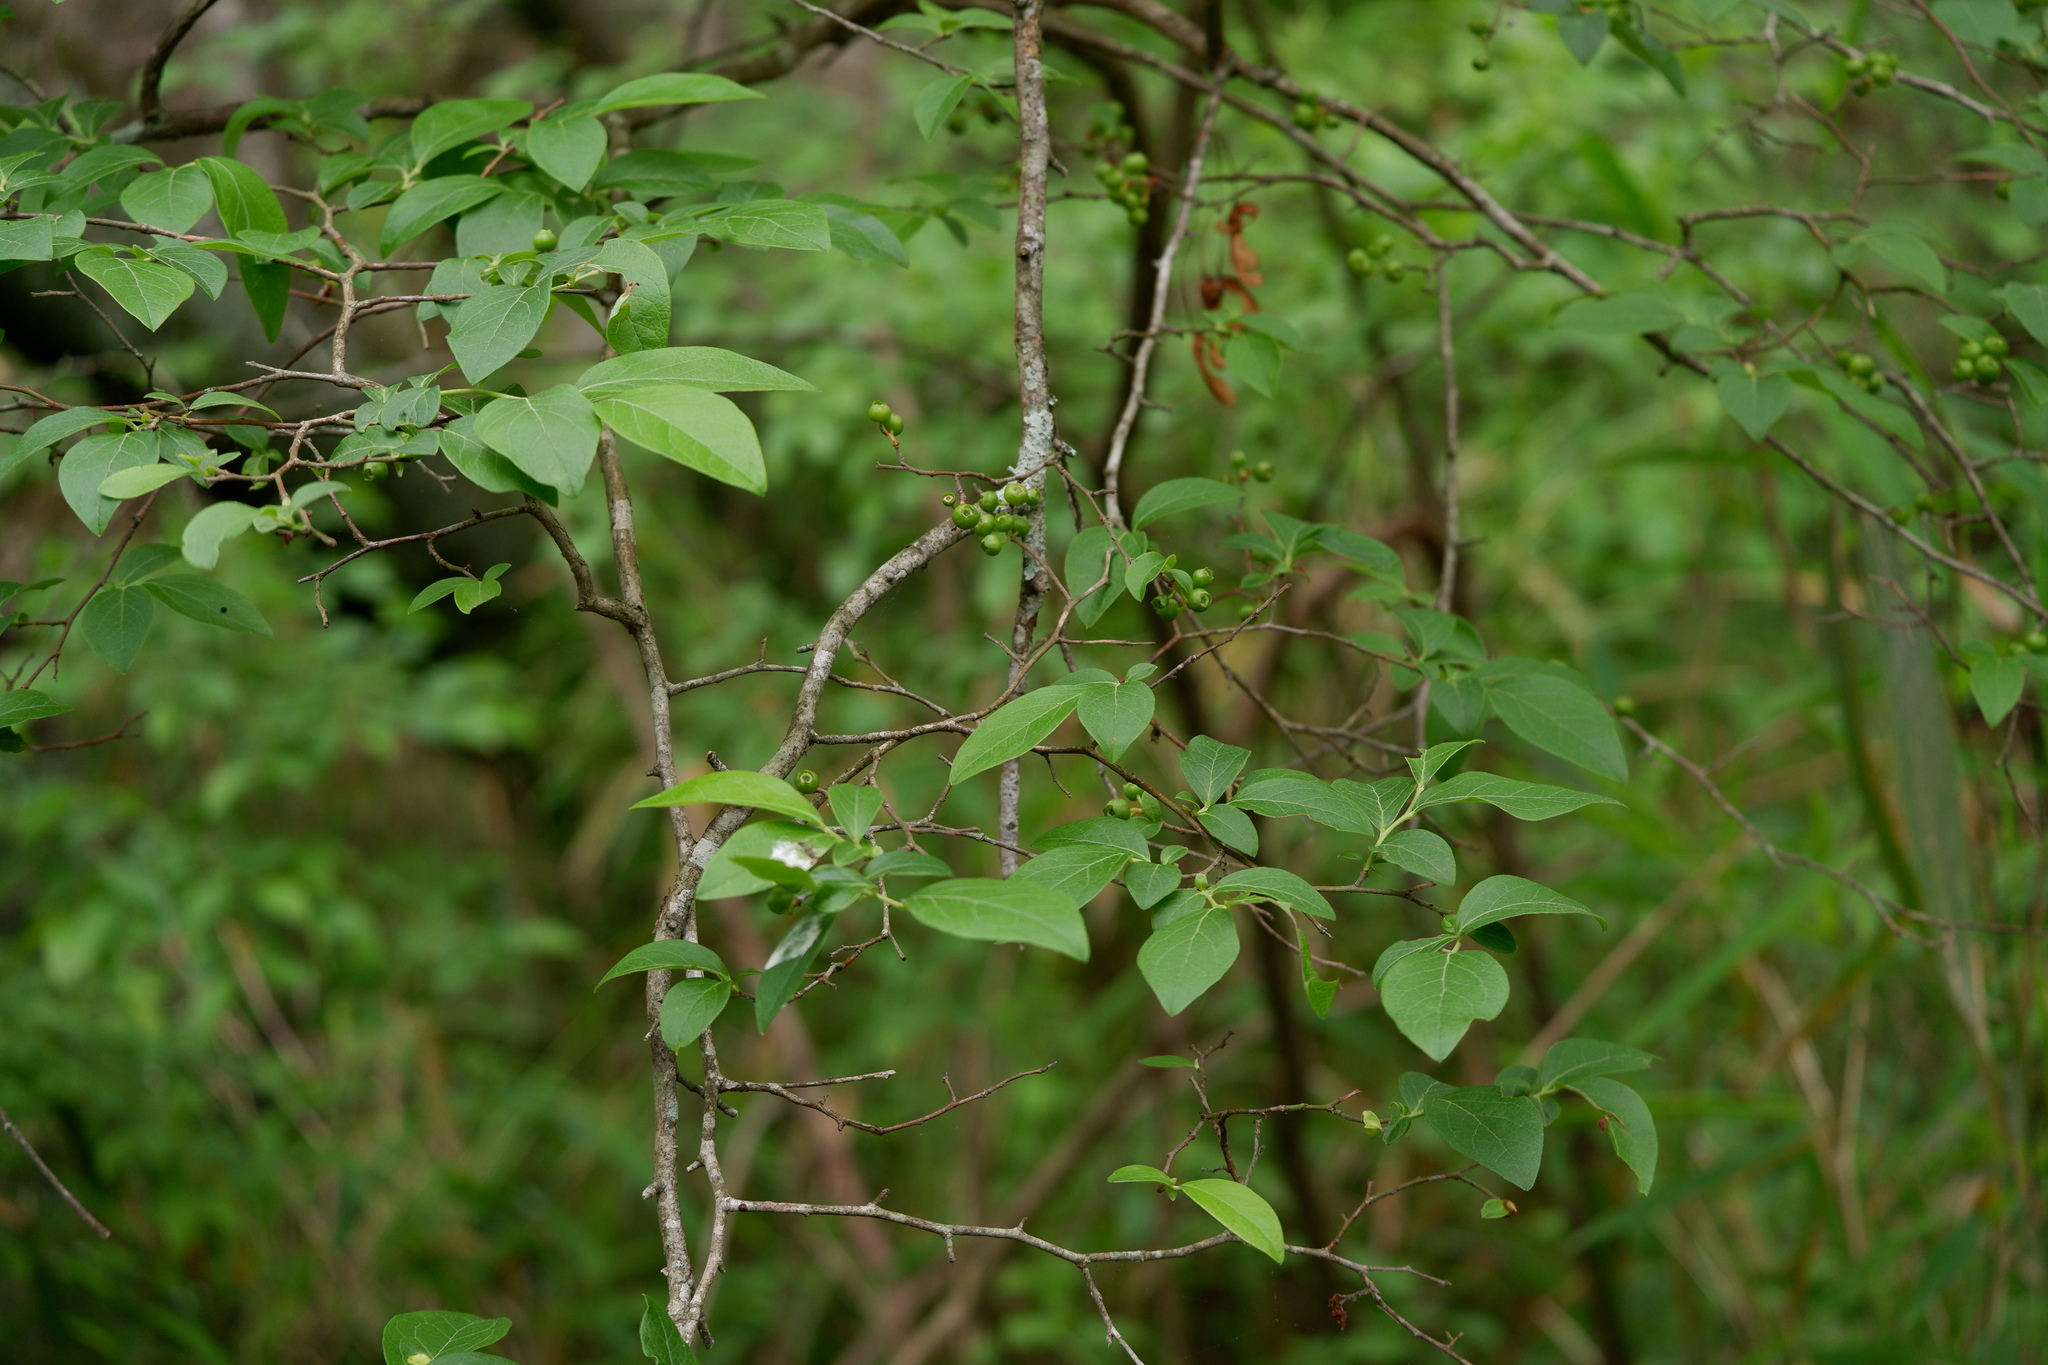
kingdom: Plantae
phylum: Tracheophyta
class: Magnoliopsida
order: Ericales
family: Ericaceae
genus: Vaccinium
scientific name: Vaccinium corymbosum
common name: Blueberry
